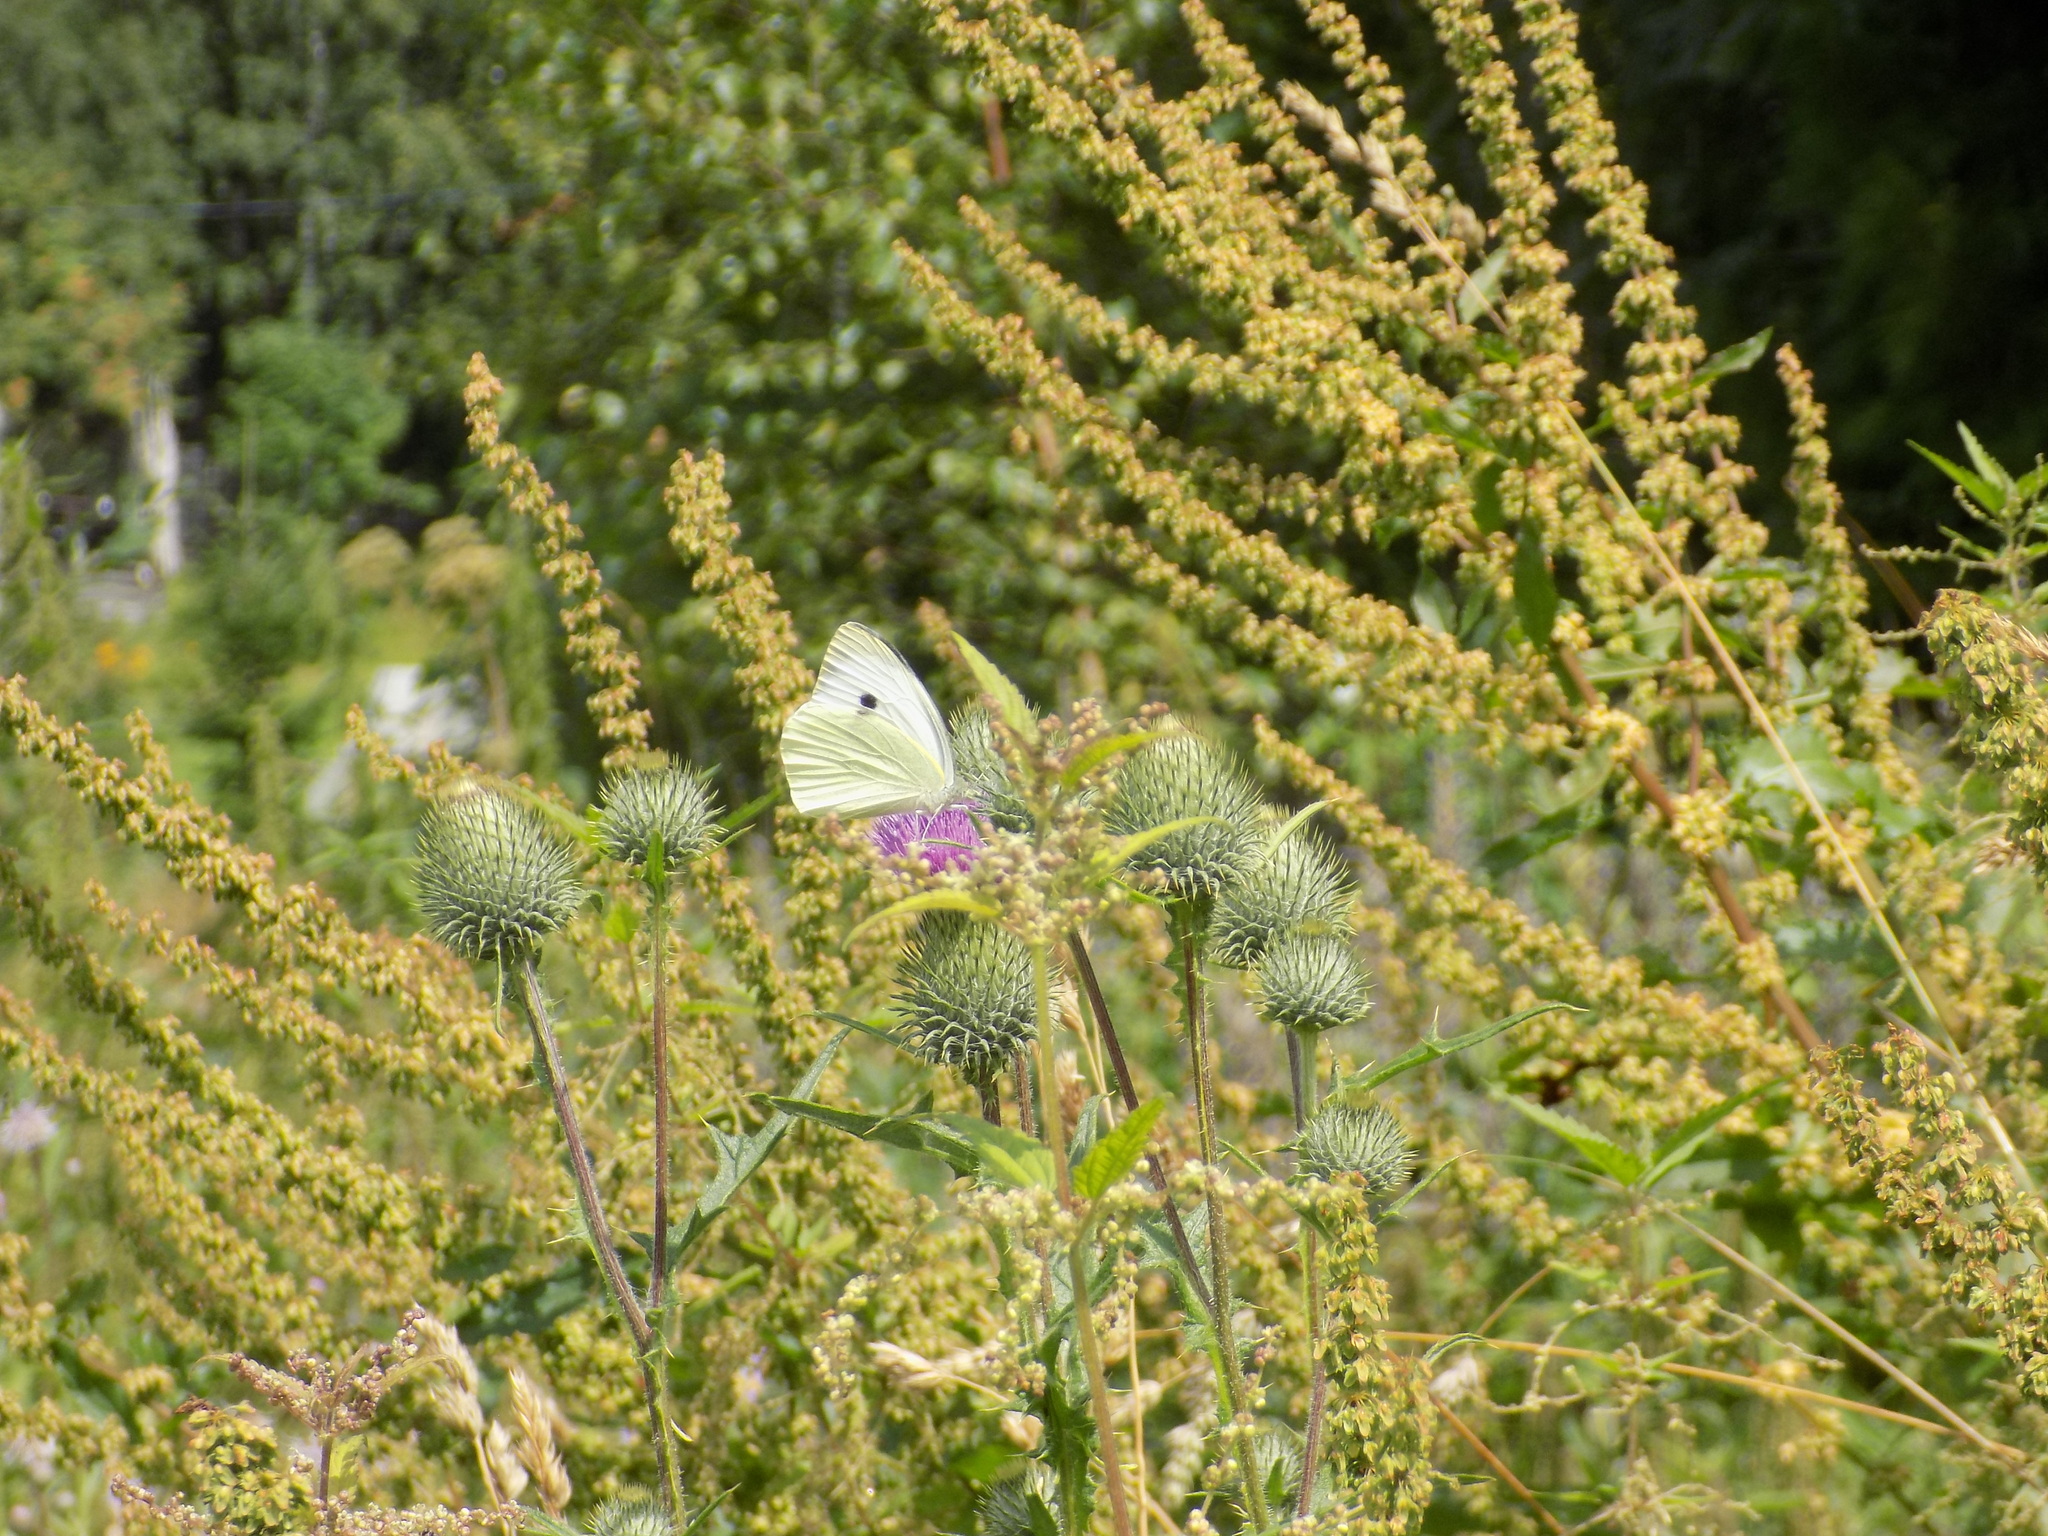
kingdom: Animalia
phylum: Arthropoda
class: Insecta
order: Lepidoptera
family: Pieridae
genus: Pieris
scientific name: Pieris brassicae
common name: Large white
